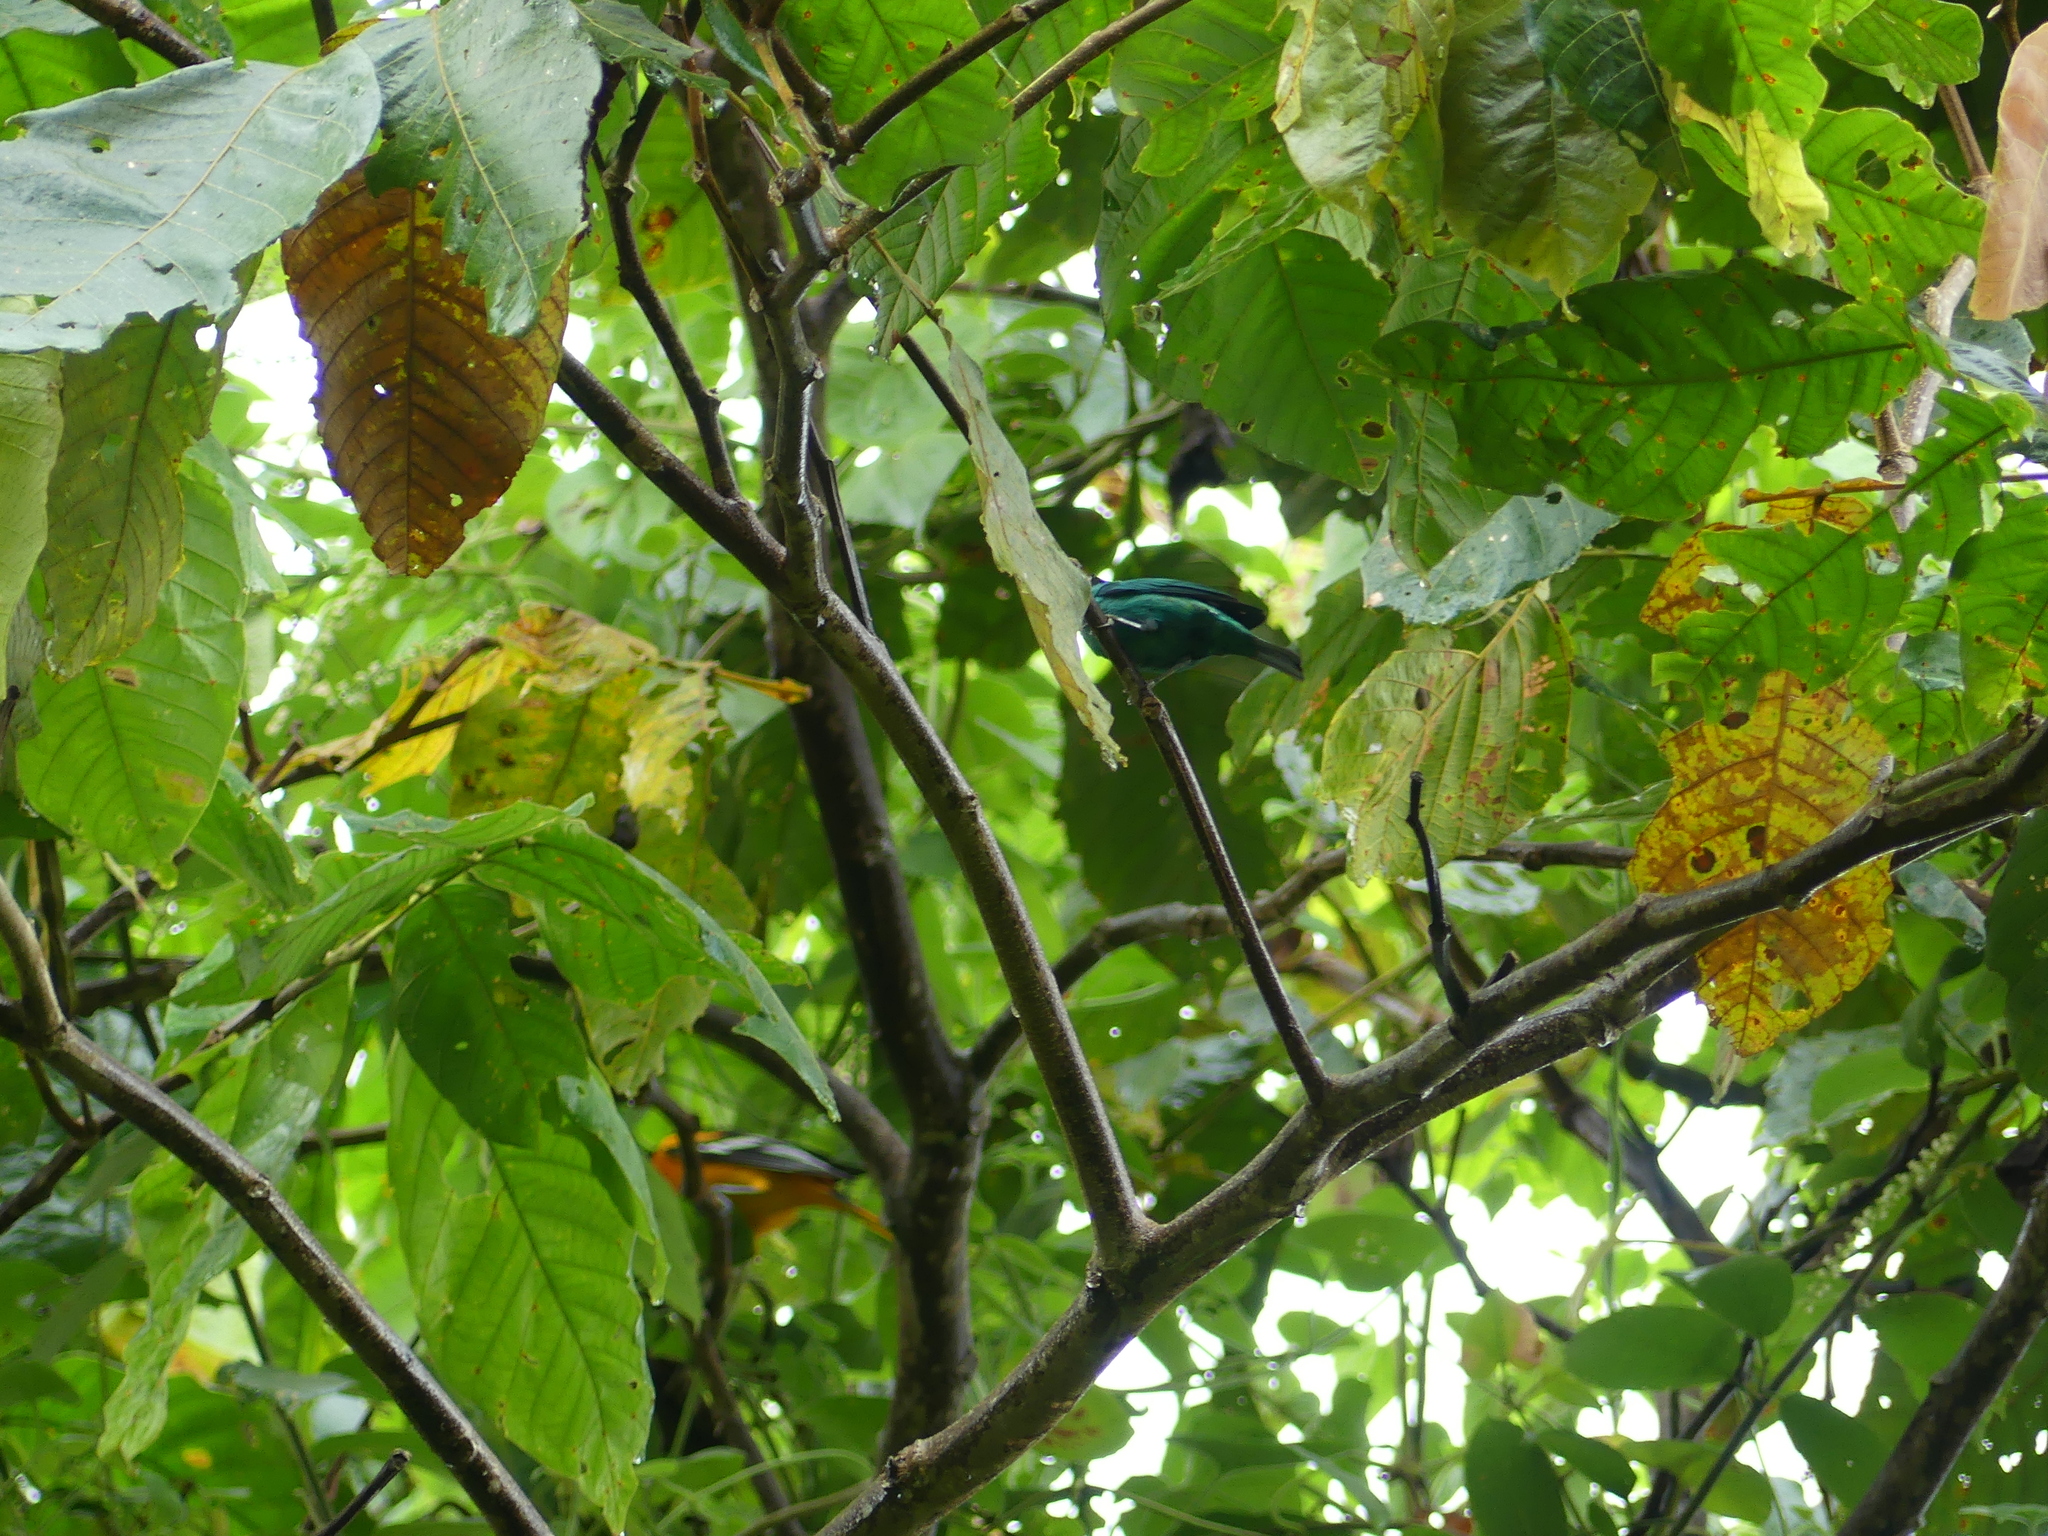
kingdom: Animalia
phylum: Chordata
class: Aves
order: Passeriformes
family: Thraupidae
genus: Chlorophanes
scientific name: Chlorophanes spiza
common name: Green honeycreeper
